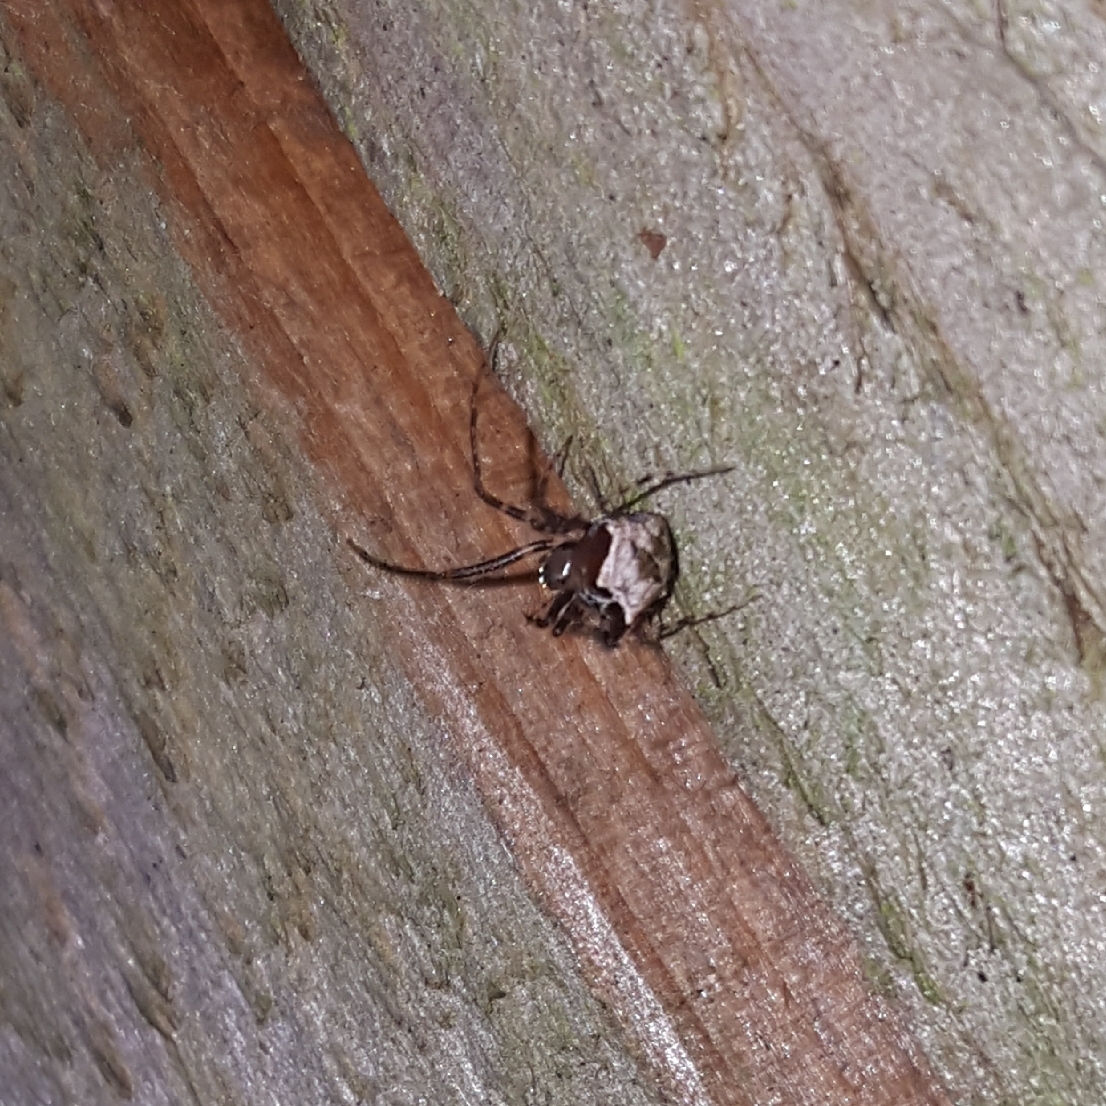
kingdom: Animalia
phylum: Arthropoda
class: Arachnida
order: Araneae
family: Mimetidae
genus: Ero
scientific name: Ero tuberculata
